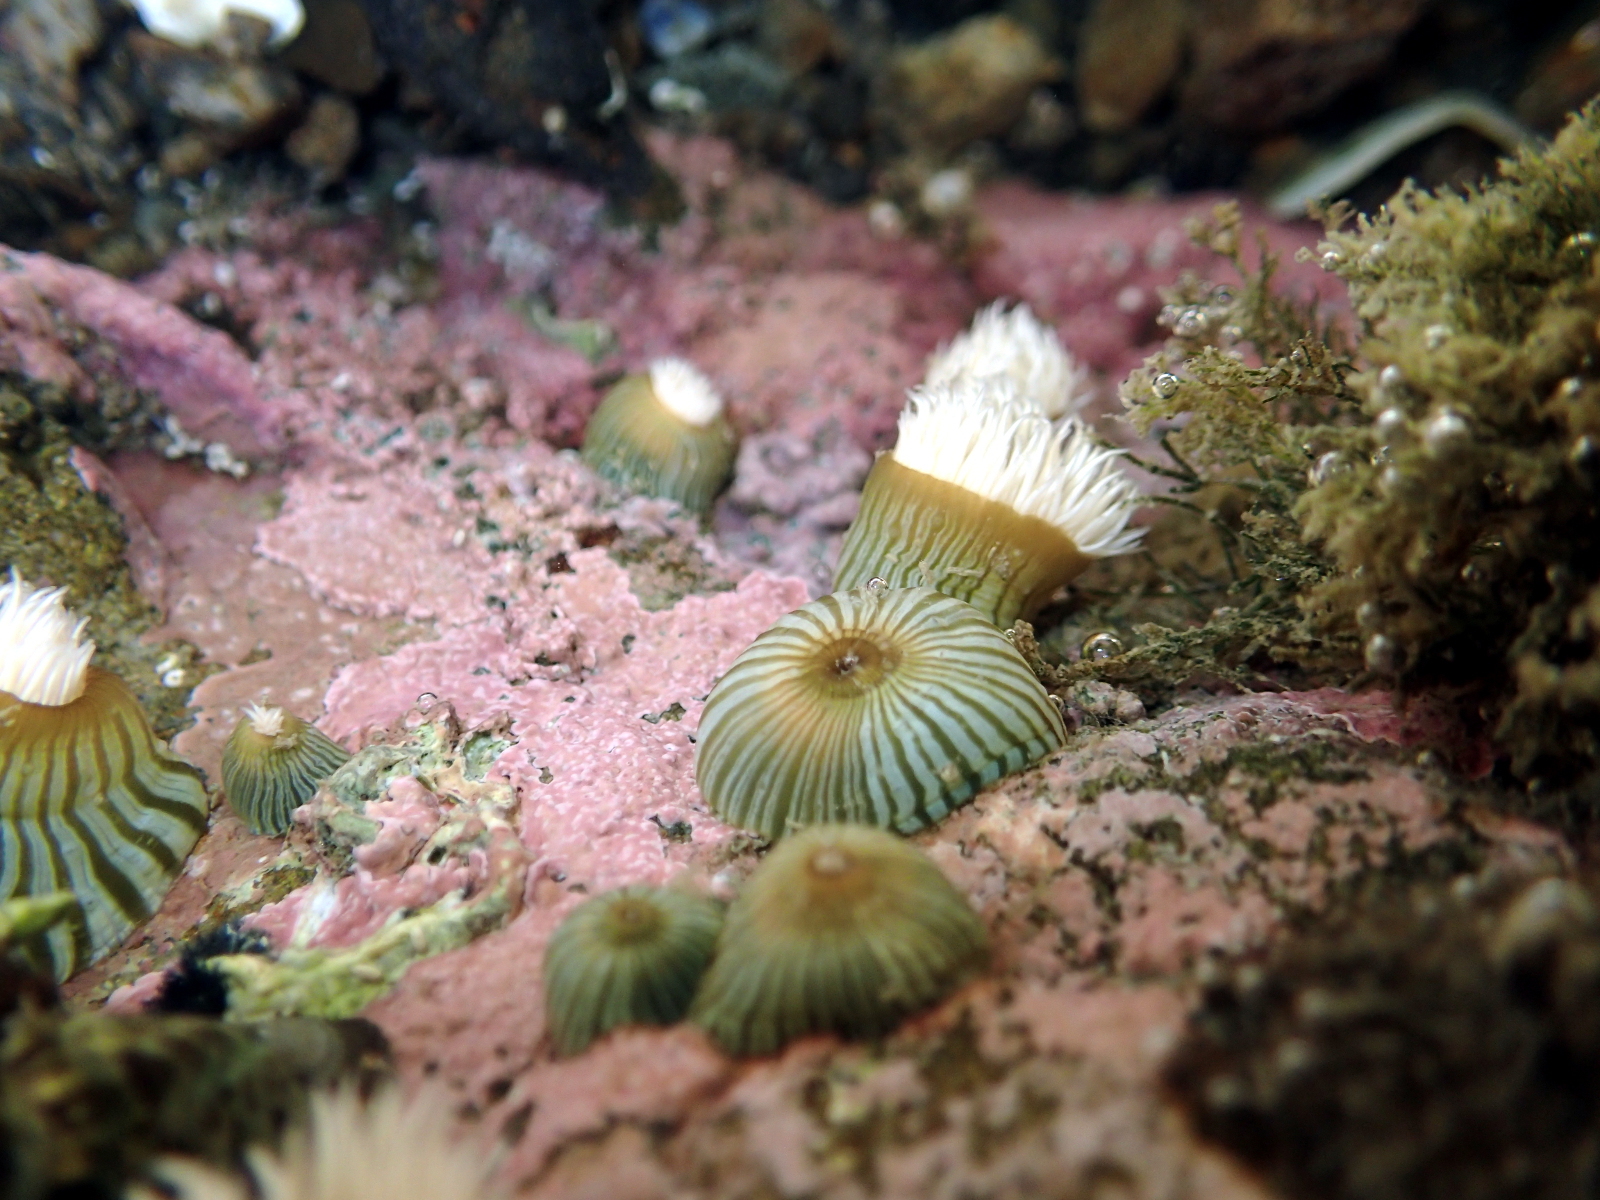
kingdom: Animalia
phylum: Cnidaria
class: Anthozoa
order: Actiniaria
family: Sagartiidae
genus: Anthothoe
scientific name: Anthothoe albocincta
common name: Orange striped anemone
